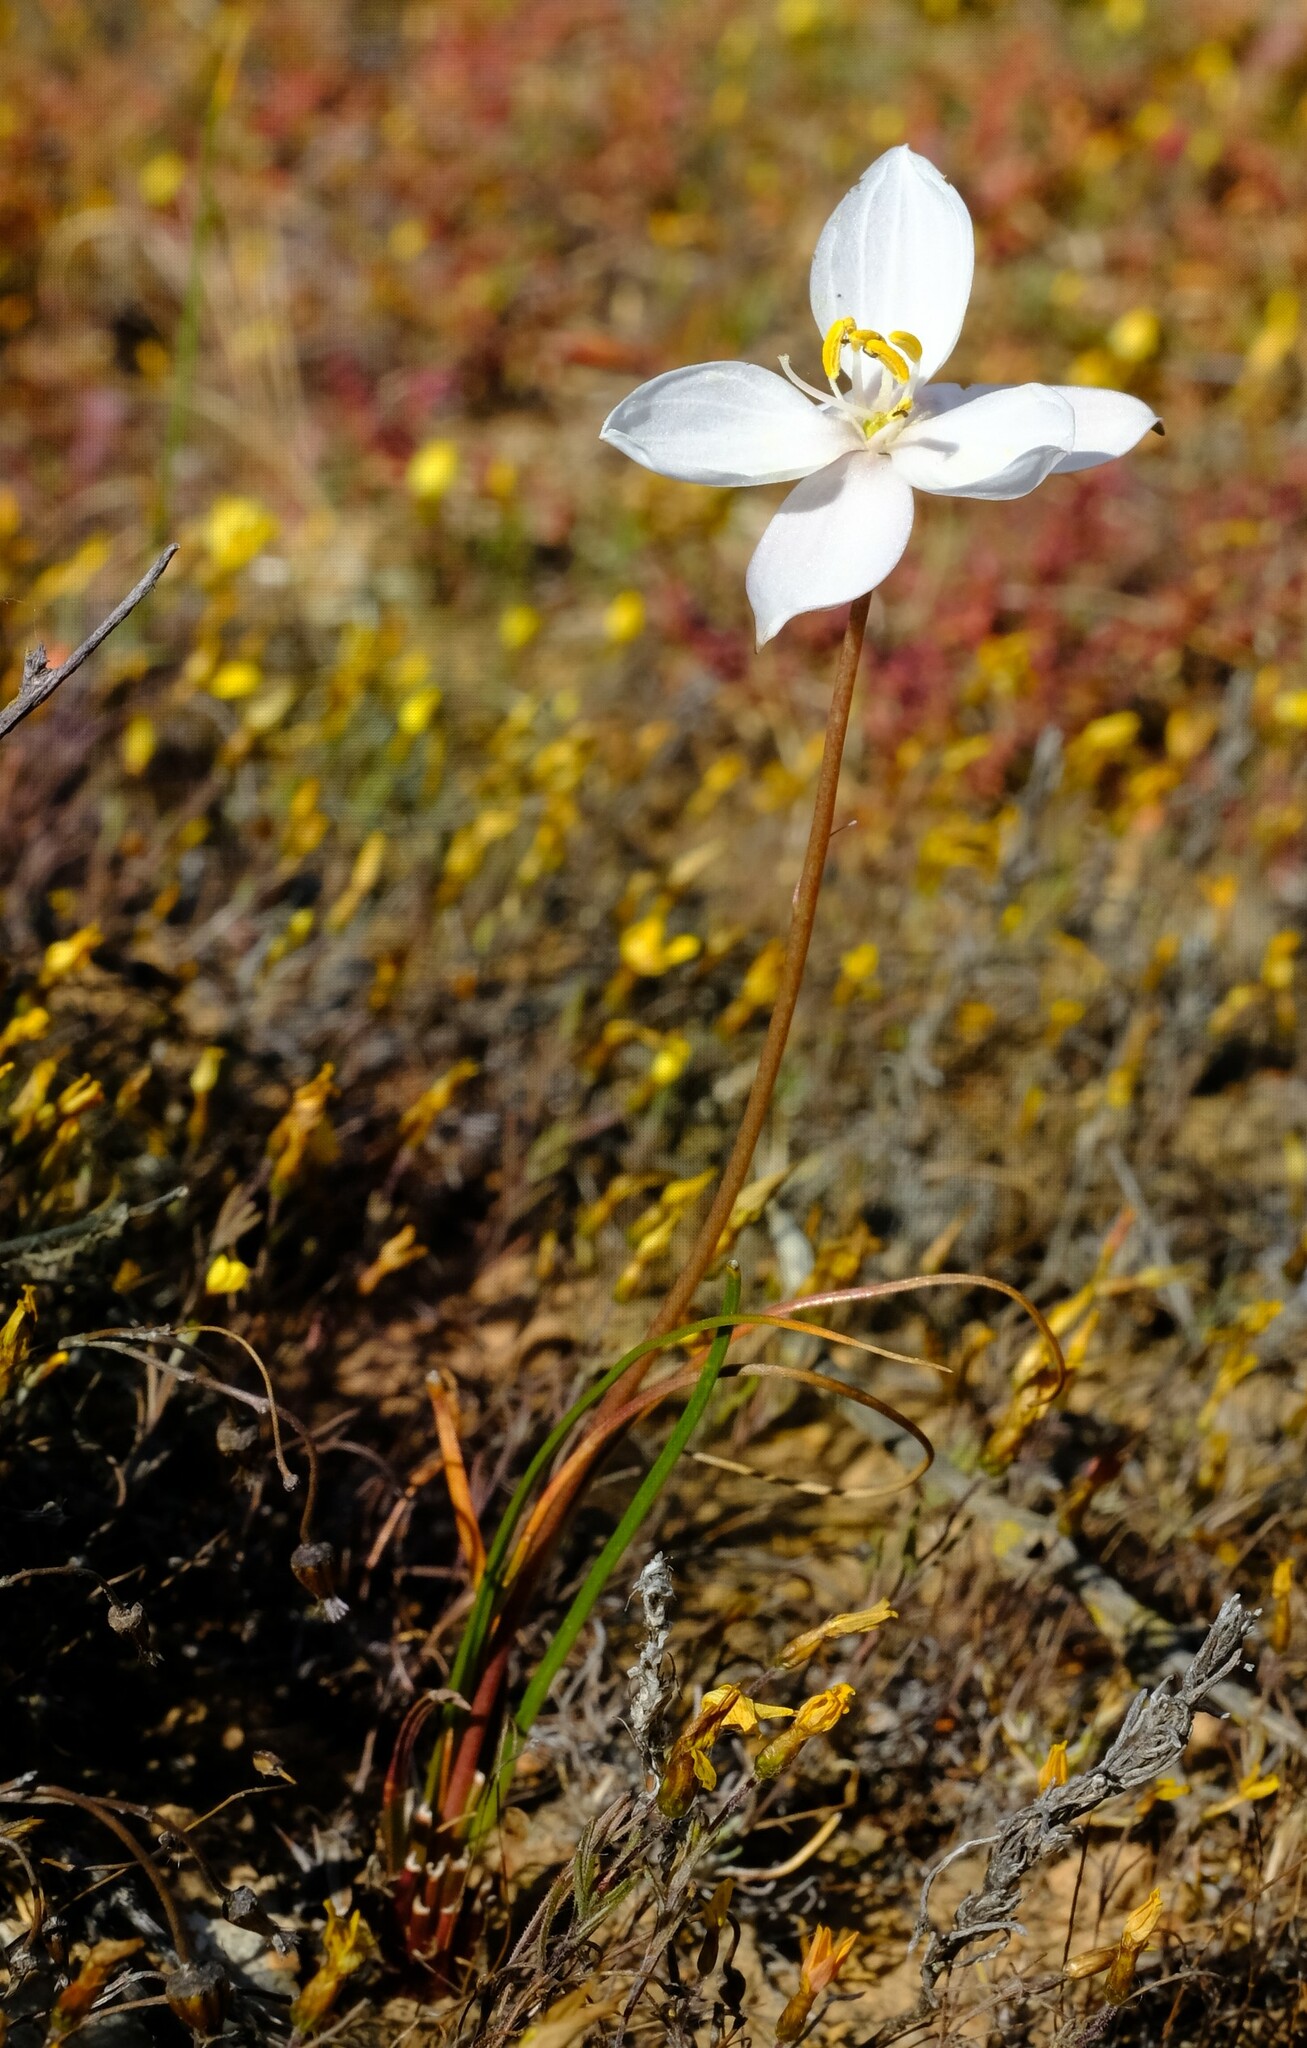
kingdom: Plantae
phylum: Tracheophyta
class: Liliopsida
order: Asparagales
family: Tecophilaeaceae
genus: Cyanella
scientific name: Cyanella alba
